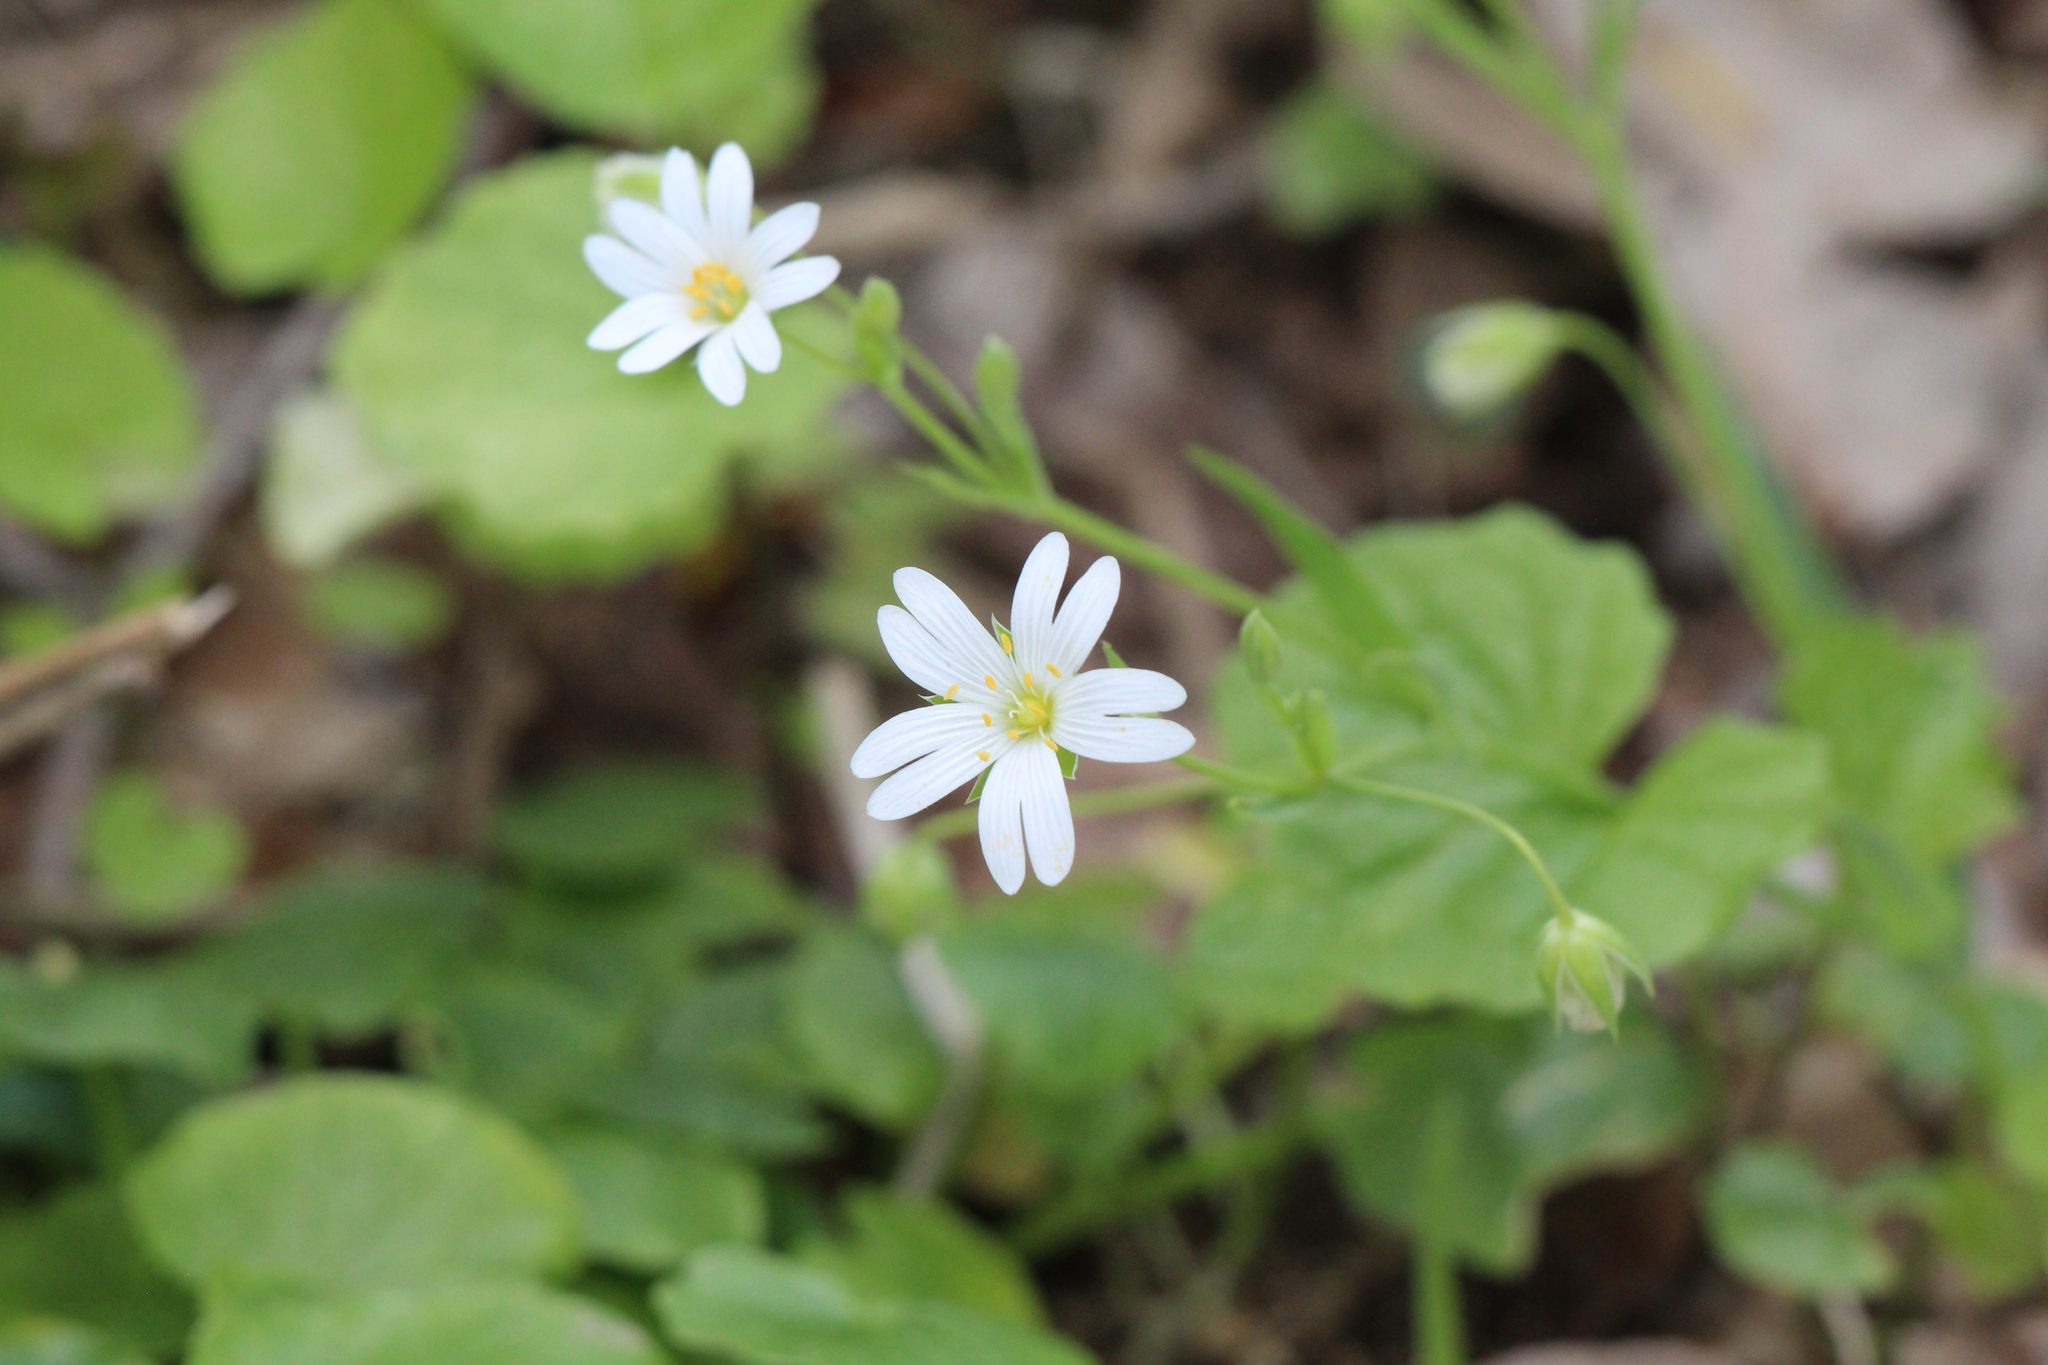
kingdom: Plantae
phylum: Tracheophyta
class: Magnoliopsida
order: Caryophyllales
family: Caryophyllaceae
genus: Rabelera
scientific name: Rabelera holostea
